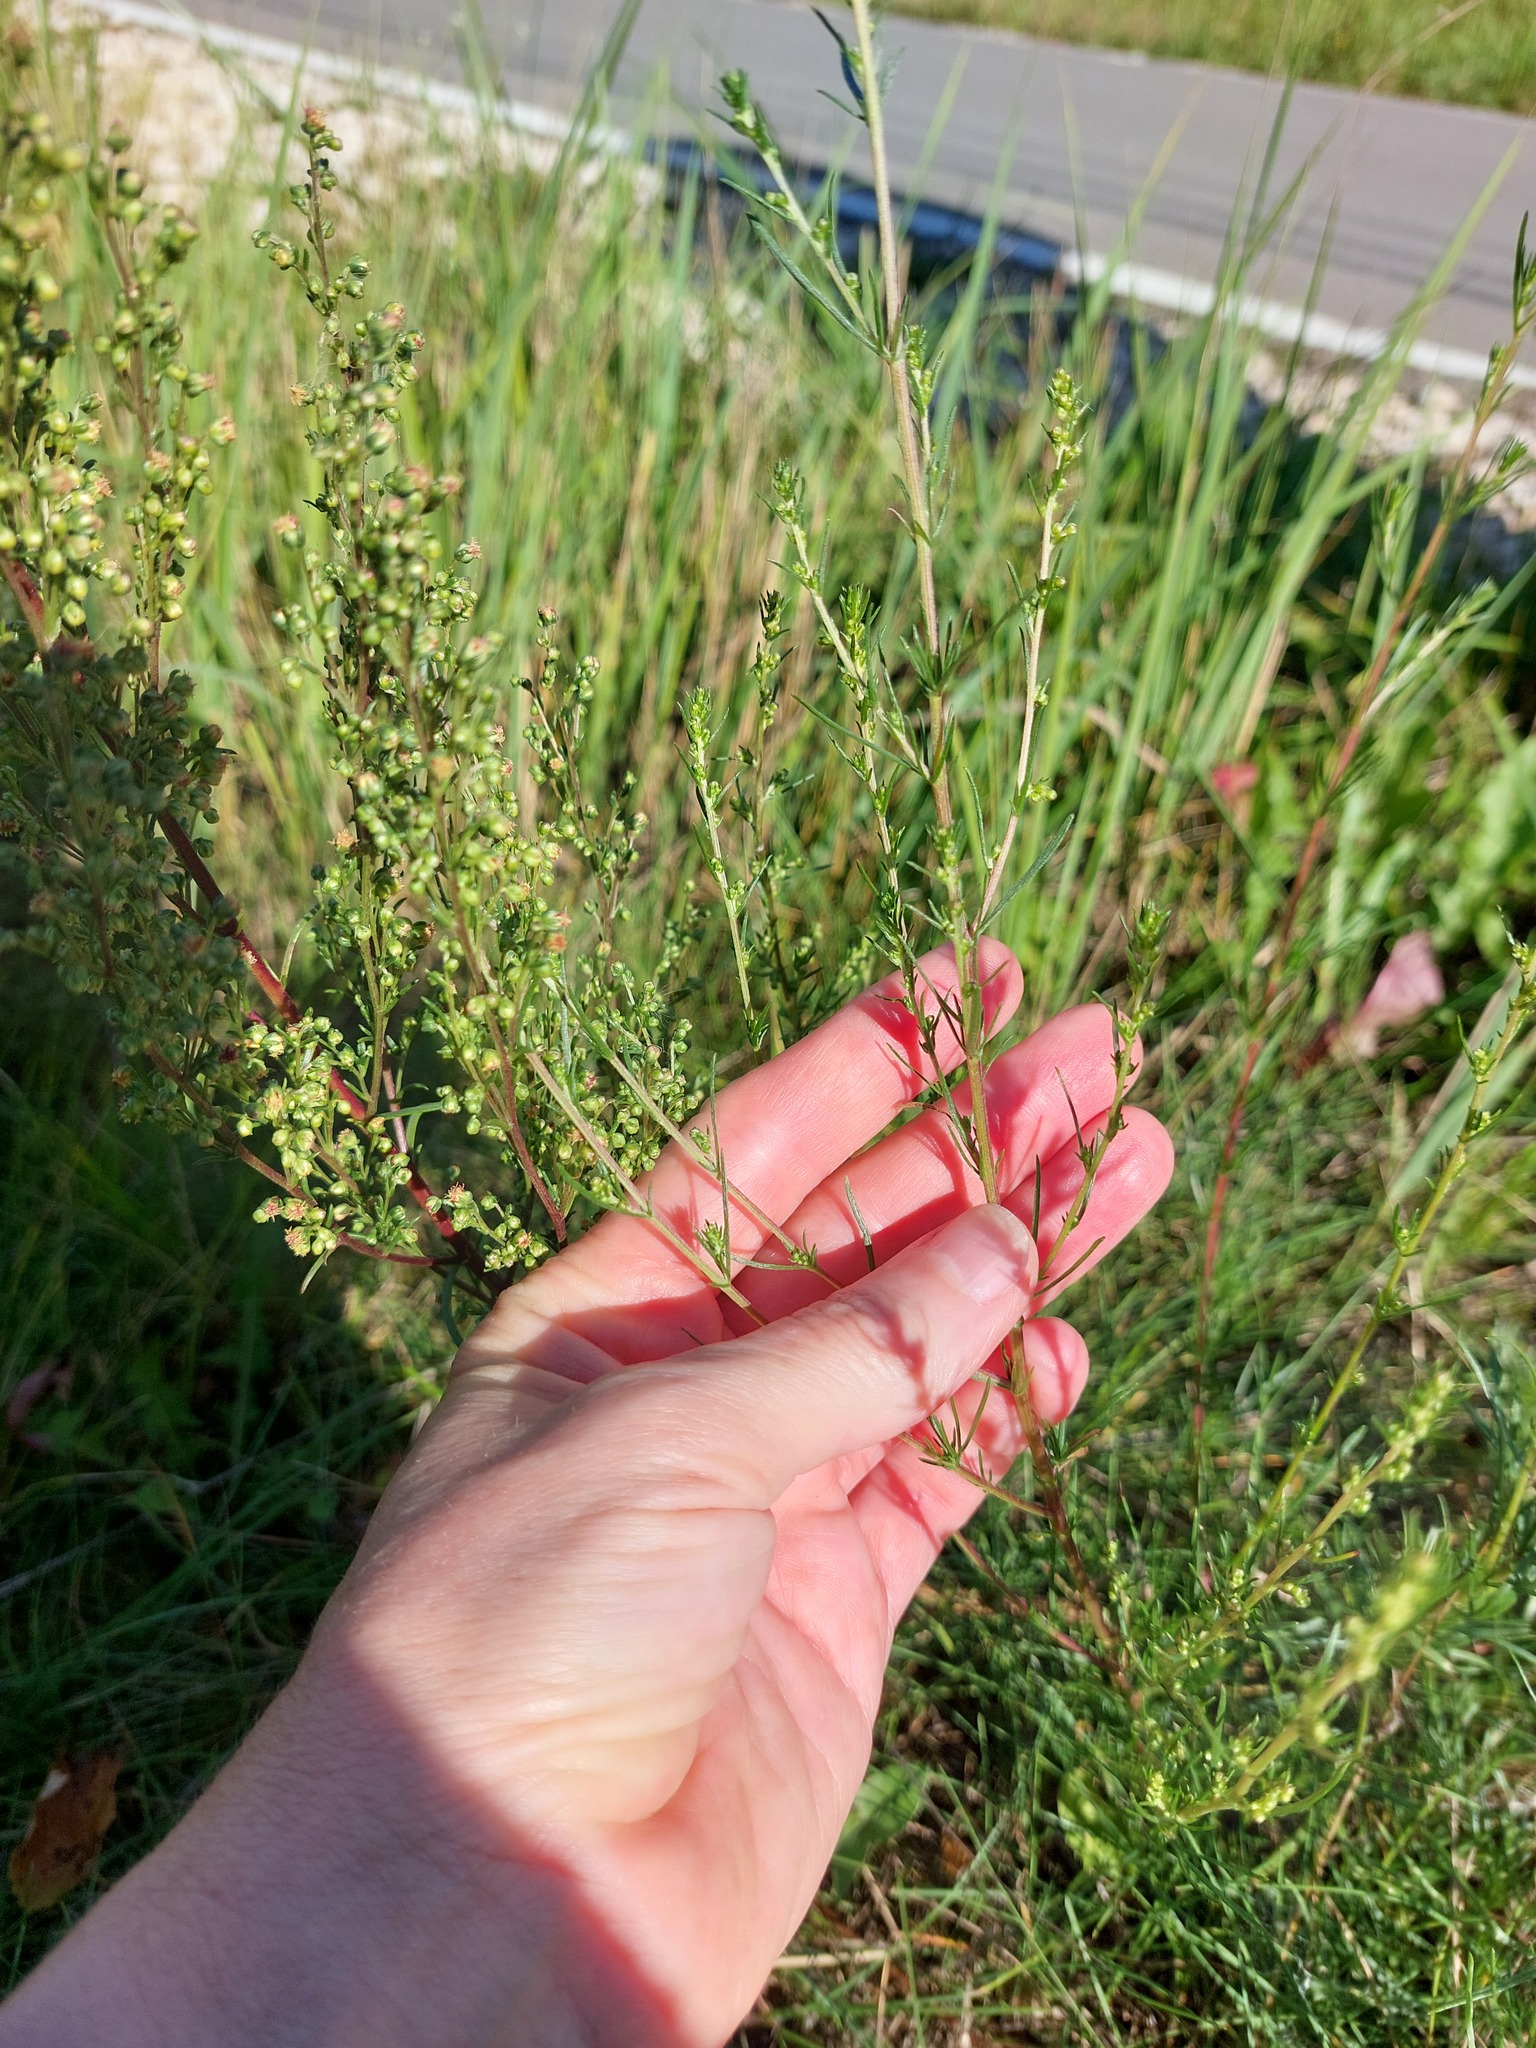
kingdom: Plantae
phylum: Tracheophyta
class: Magnoliopsida
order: Asterales
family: Asteraceae
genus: Artemisia
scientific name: Artemisia campestris
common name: Field wormwood
